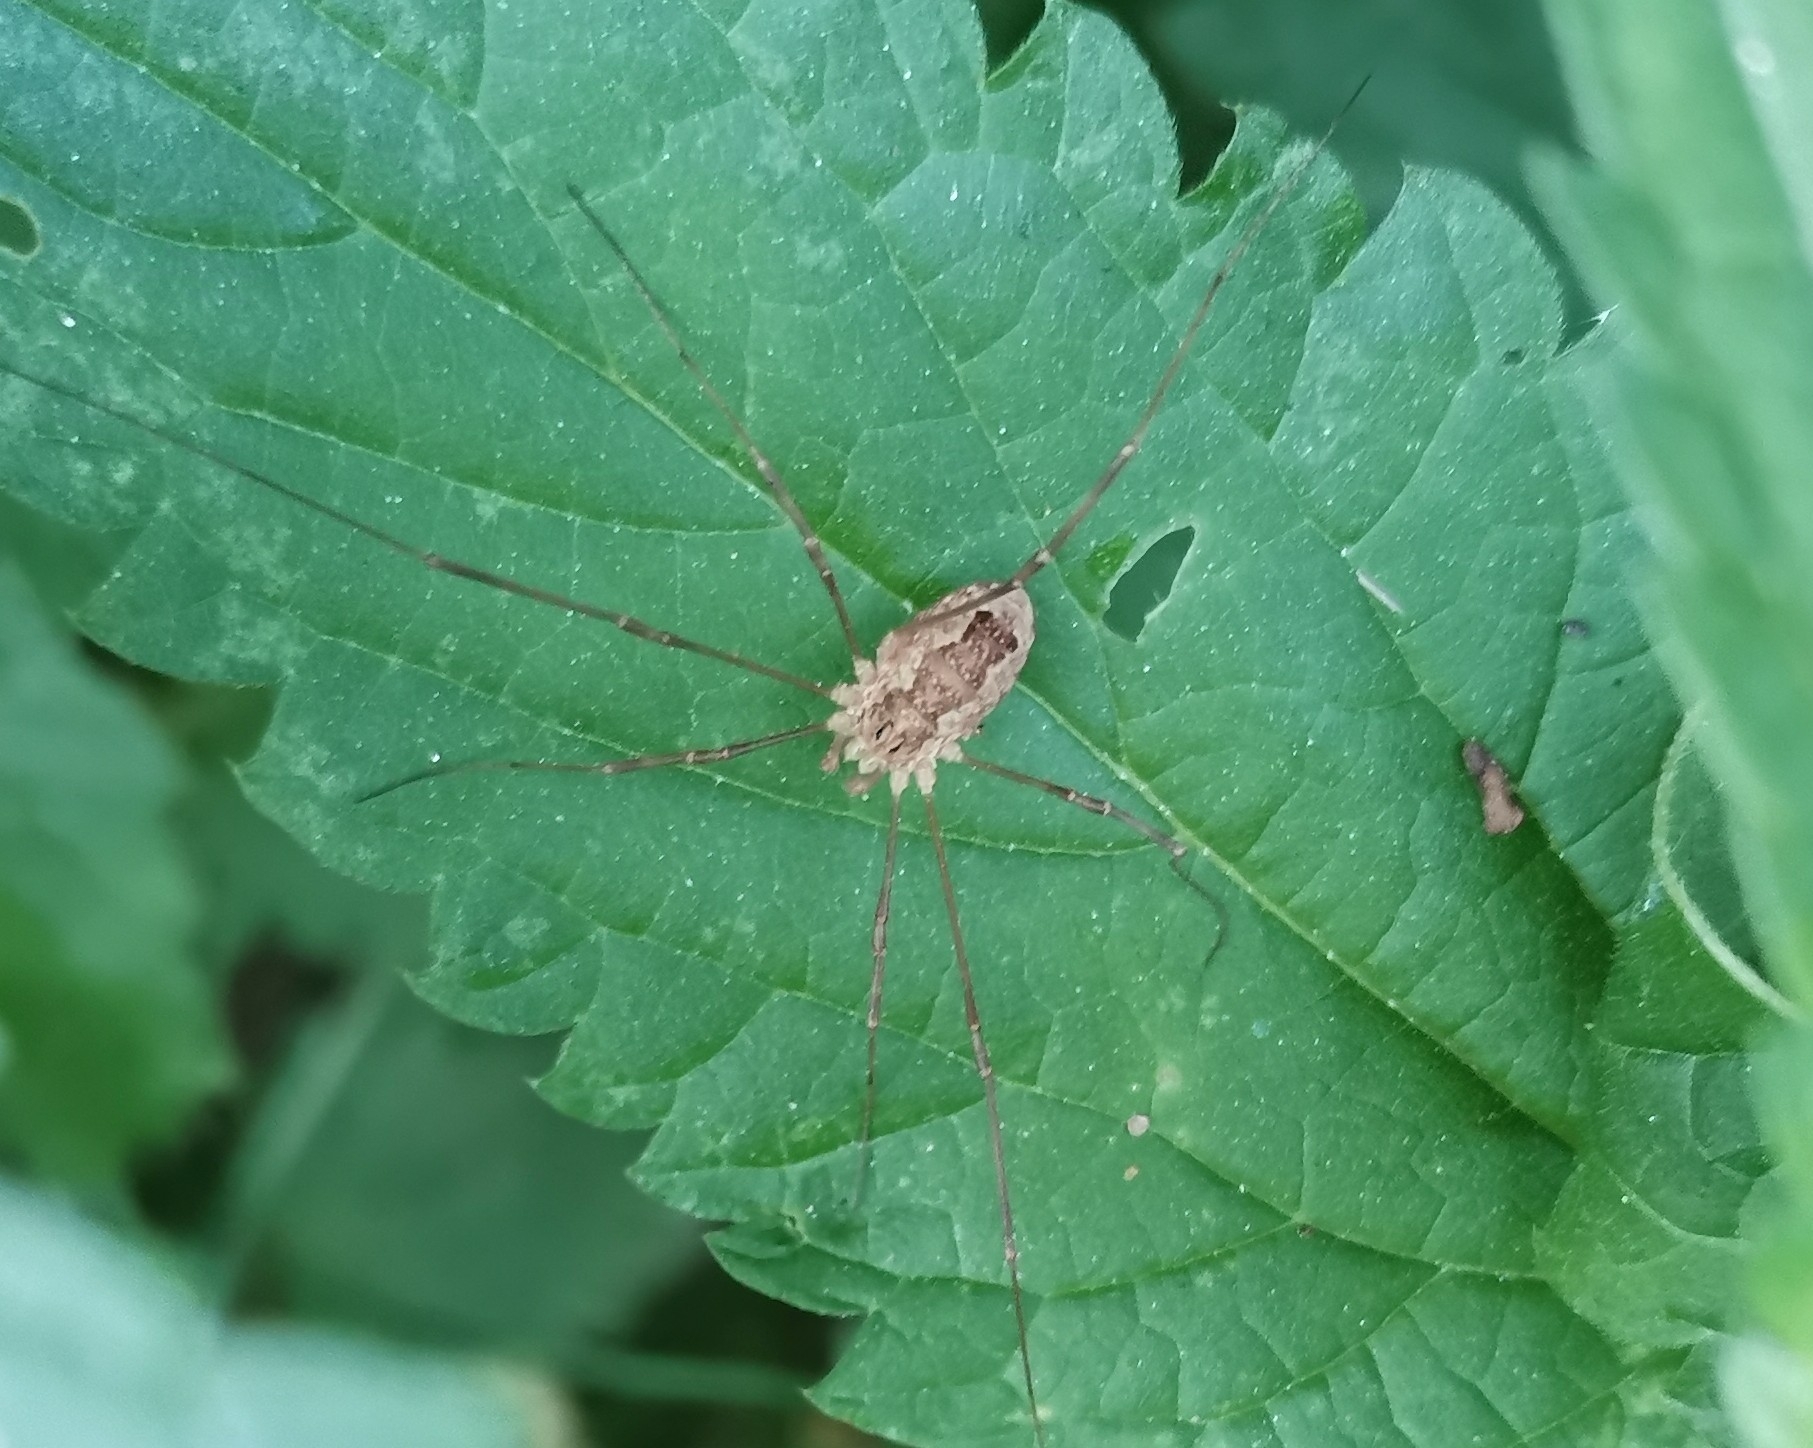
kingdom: Animalia
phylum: Arthropoda
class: Arachnida
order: Opiliones
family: Phalangiidae
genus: Rilaena
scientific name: Rilaena triangularis
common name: Spring harvestman
